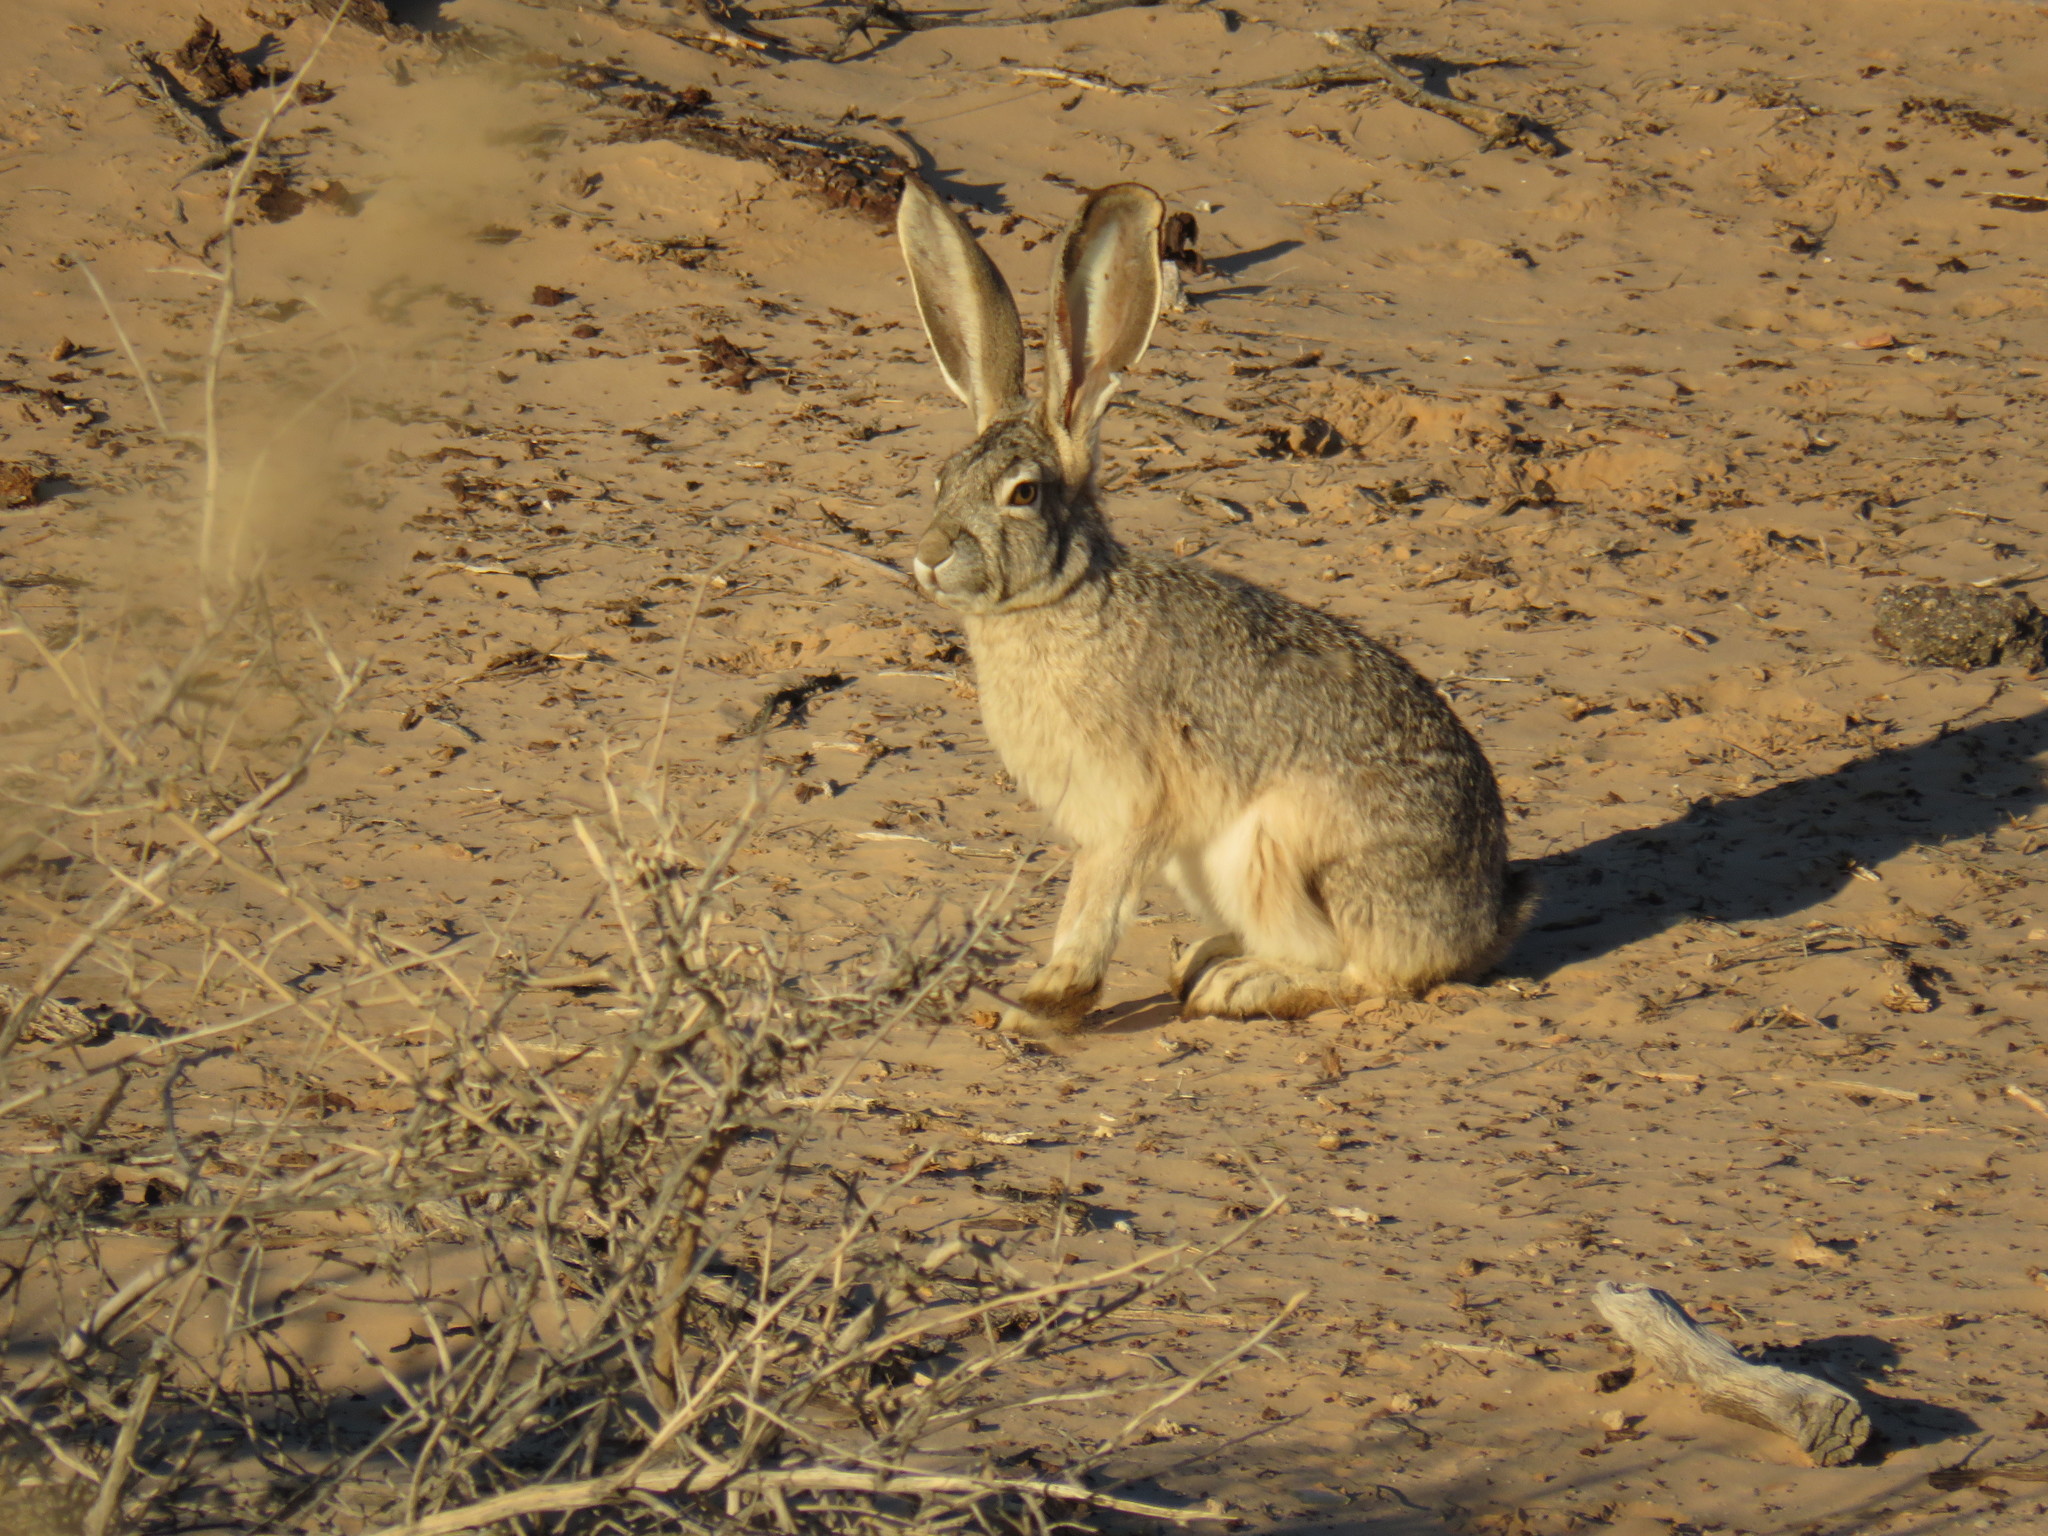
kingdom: Animalia
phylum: Chordata
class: Mammalia
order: Lagomorpha
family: Leporidae
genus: Lepus
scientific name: Lepus californicus
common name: Black-tailed jackrabbit
